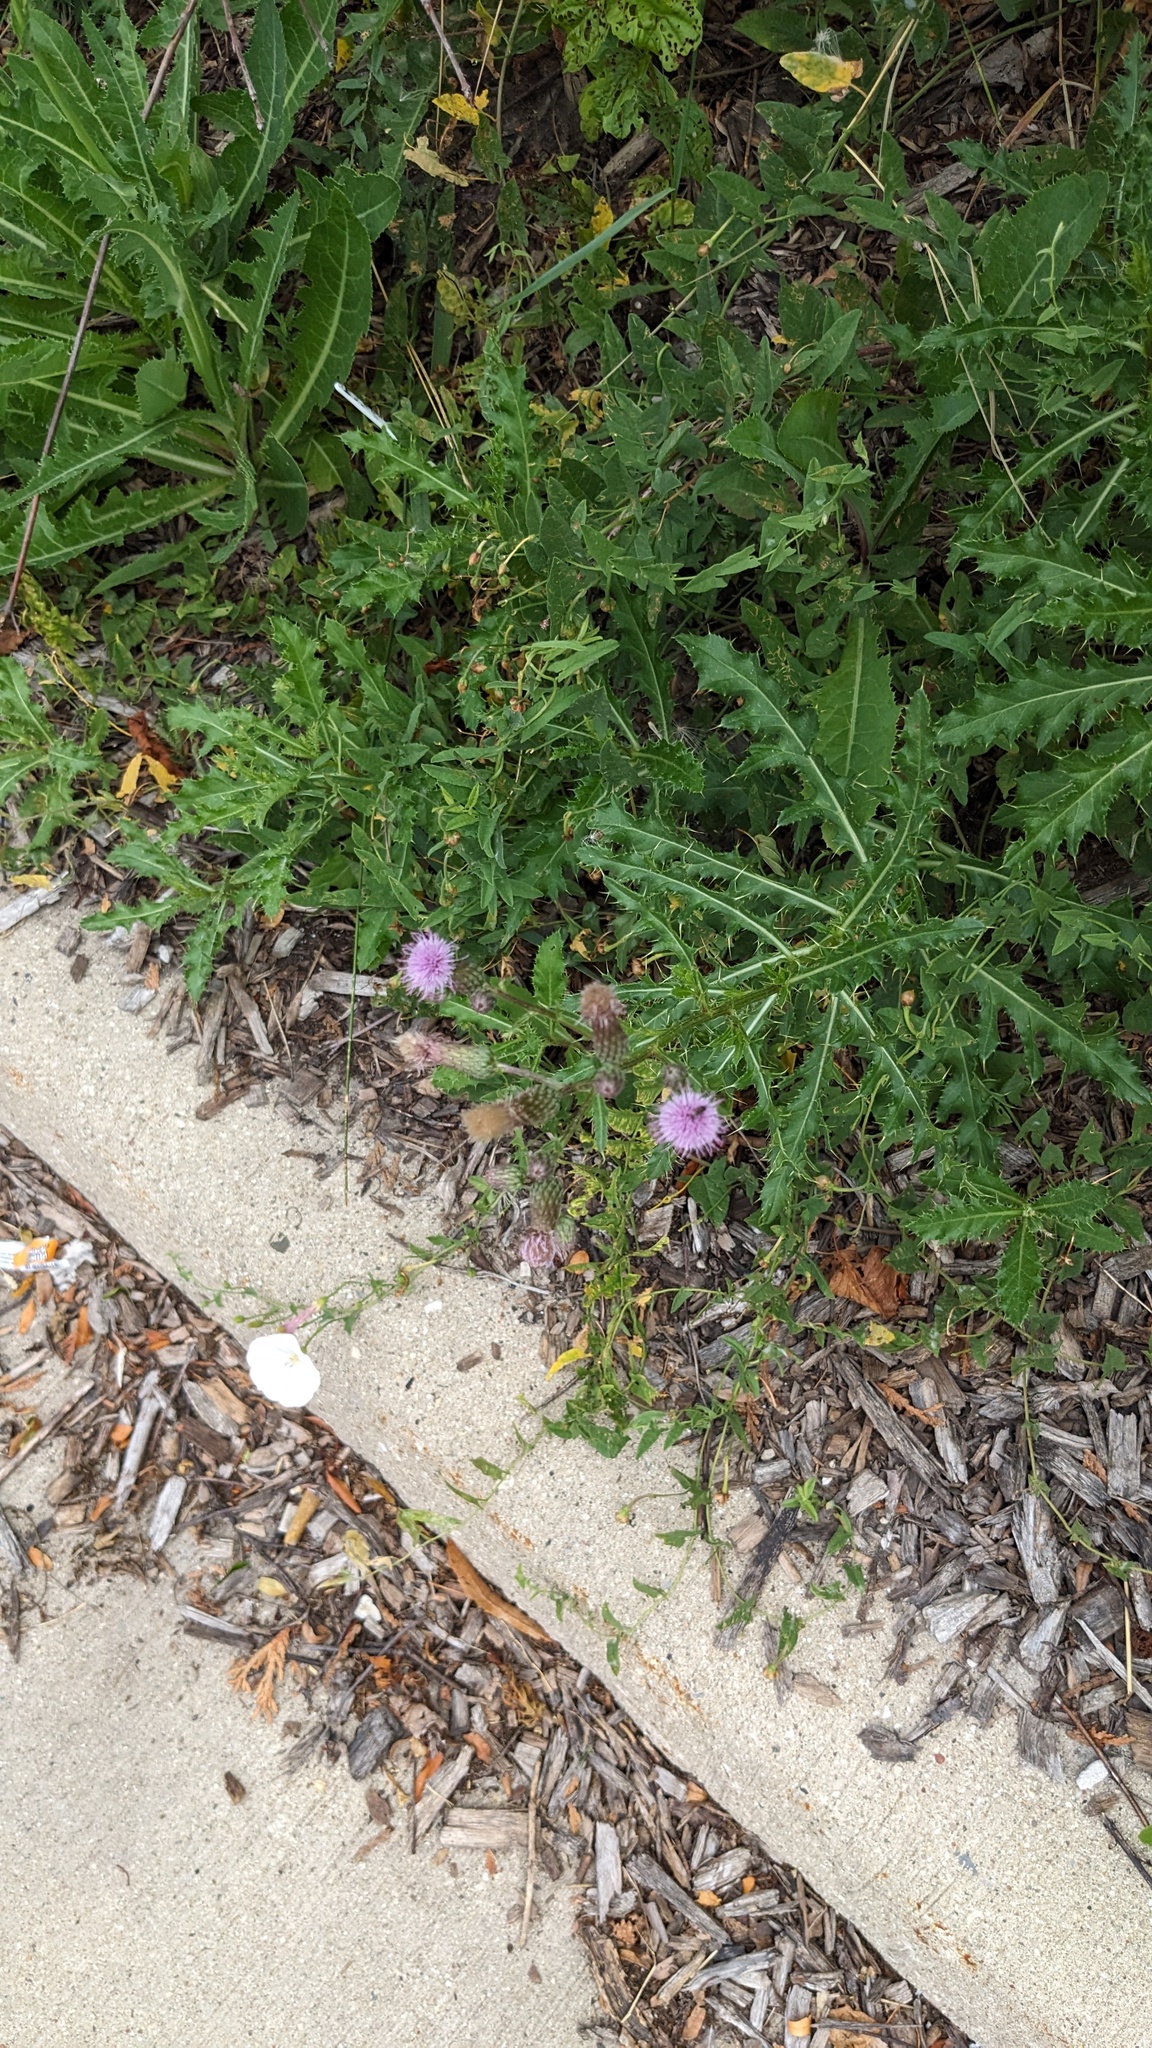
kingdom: Plantae
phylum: Tracheophyta
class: Magnoliopsida
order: Asterales
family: Asteraceae
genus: Cirsium
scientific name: Cirsium arvense
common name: Creeping thistle
